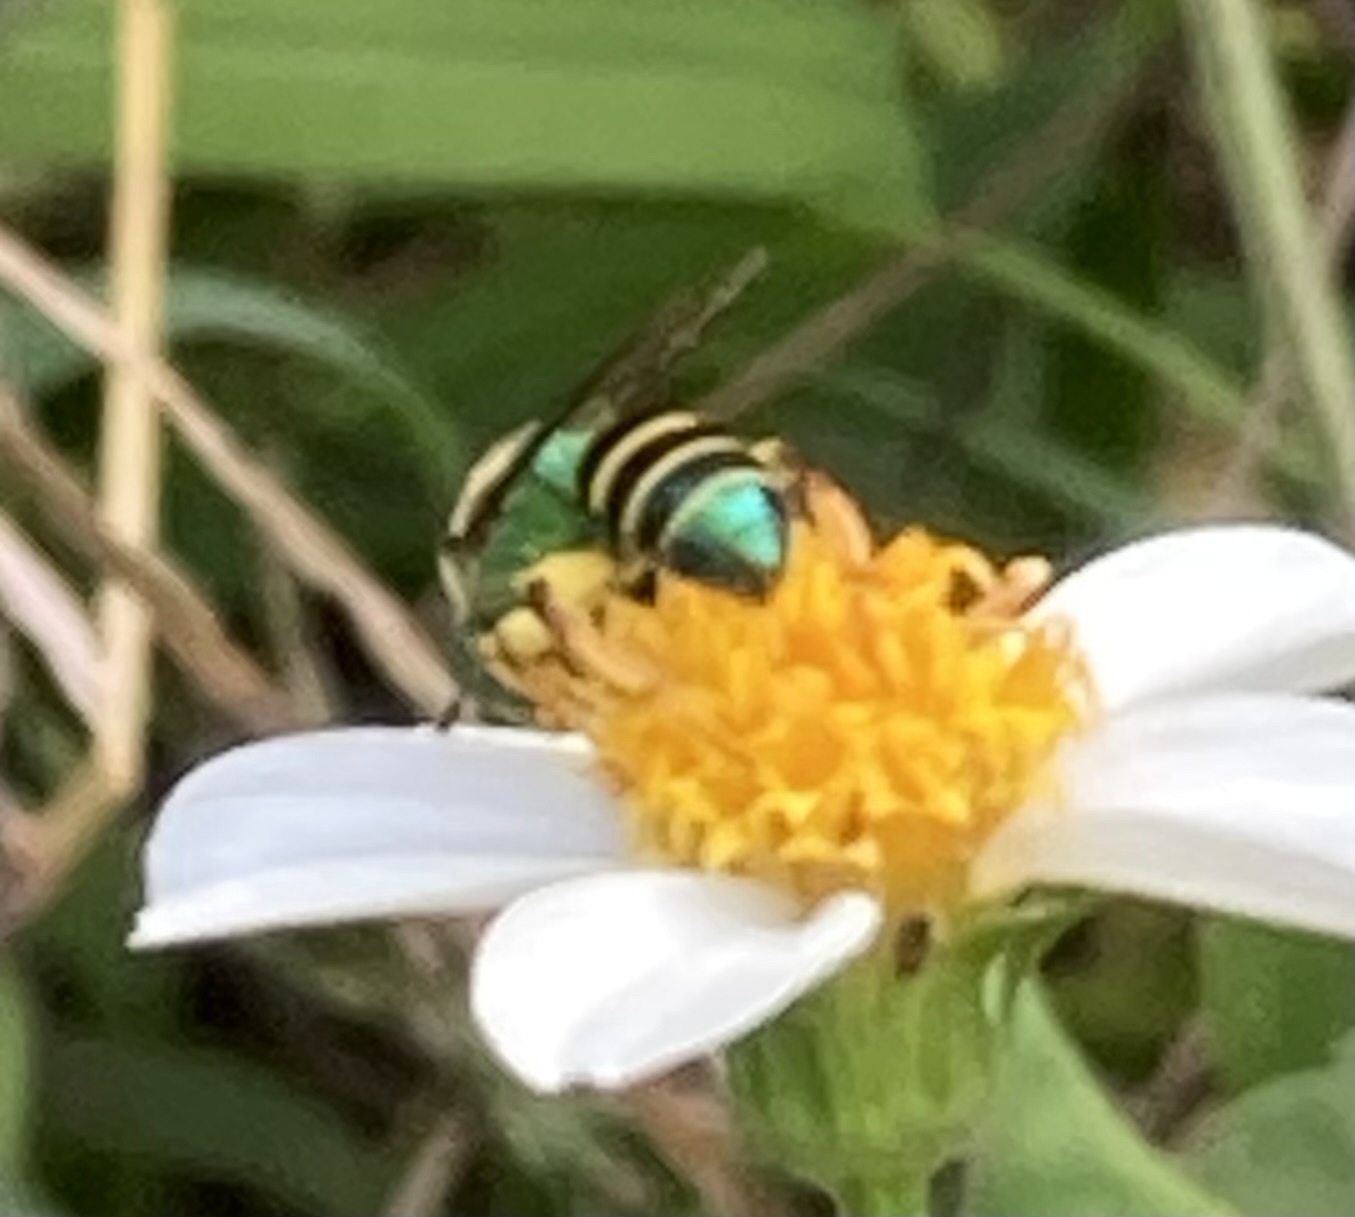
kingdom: Animalia
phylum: Arthropoda
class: Insecta
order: Hymenoptera
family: Halictidae
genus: Agapostemon
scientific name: Agapostemon poeyi
